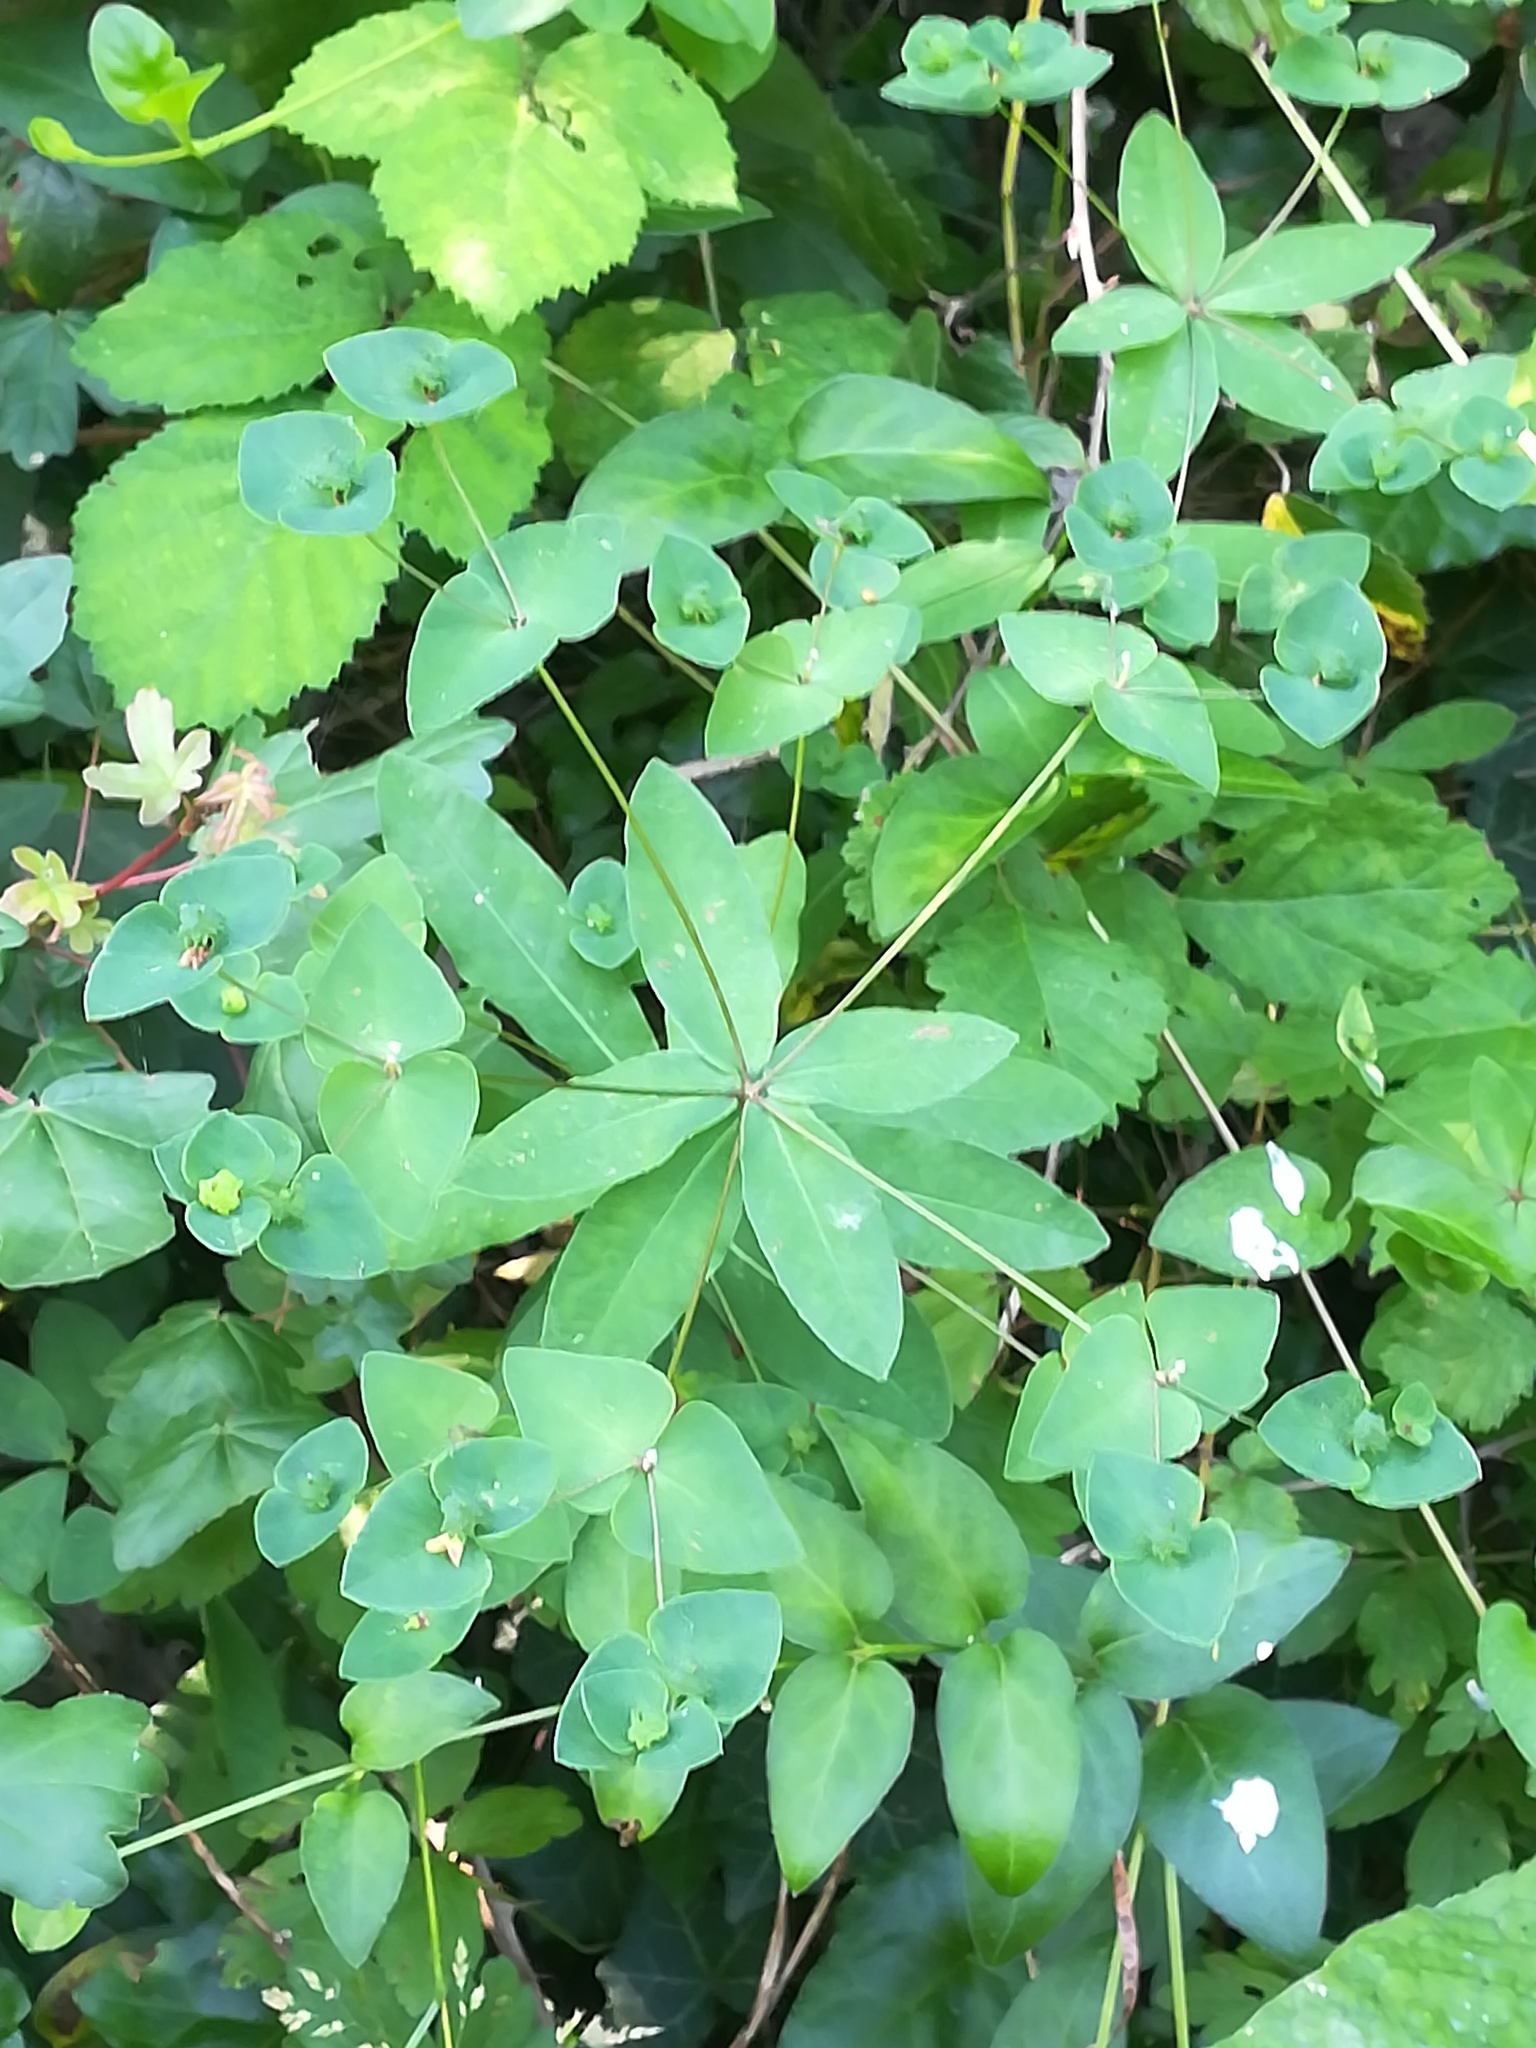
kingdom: Plantae
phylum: Tracheophyta
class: Magnoliopsida
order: Malpighiales
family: Euphorbiaceae
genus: Euphorbia
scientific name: Euphorbia dulcis
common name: Sweet spurge
